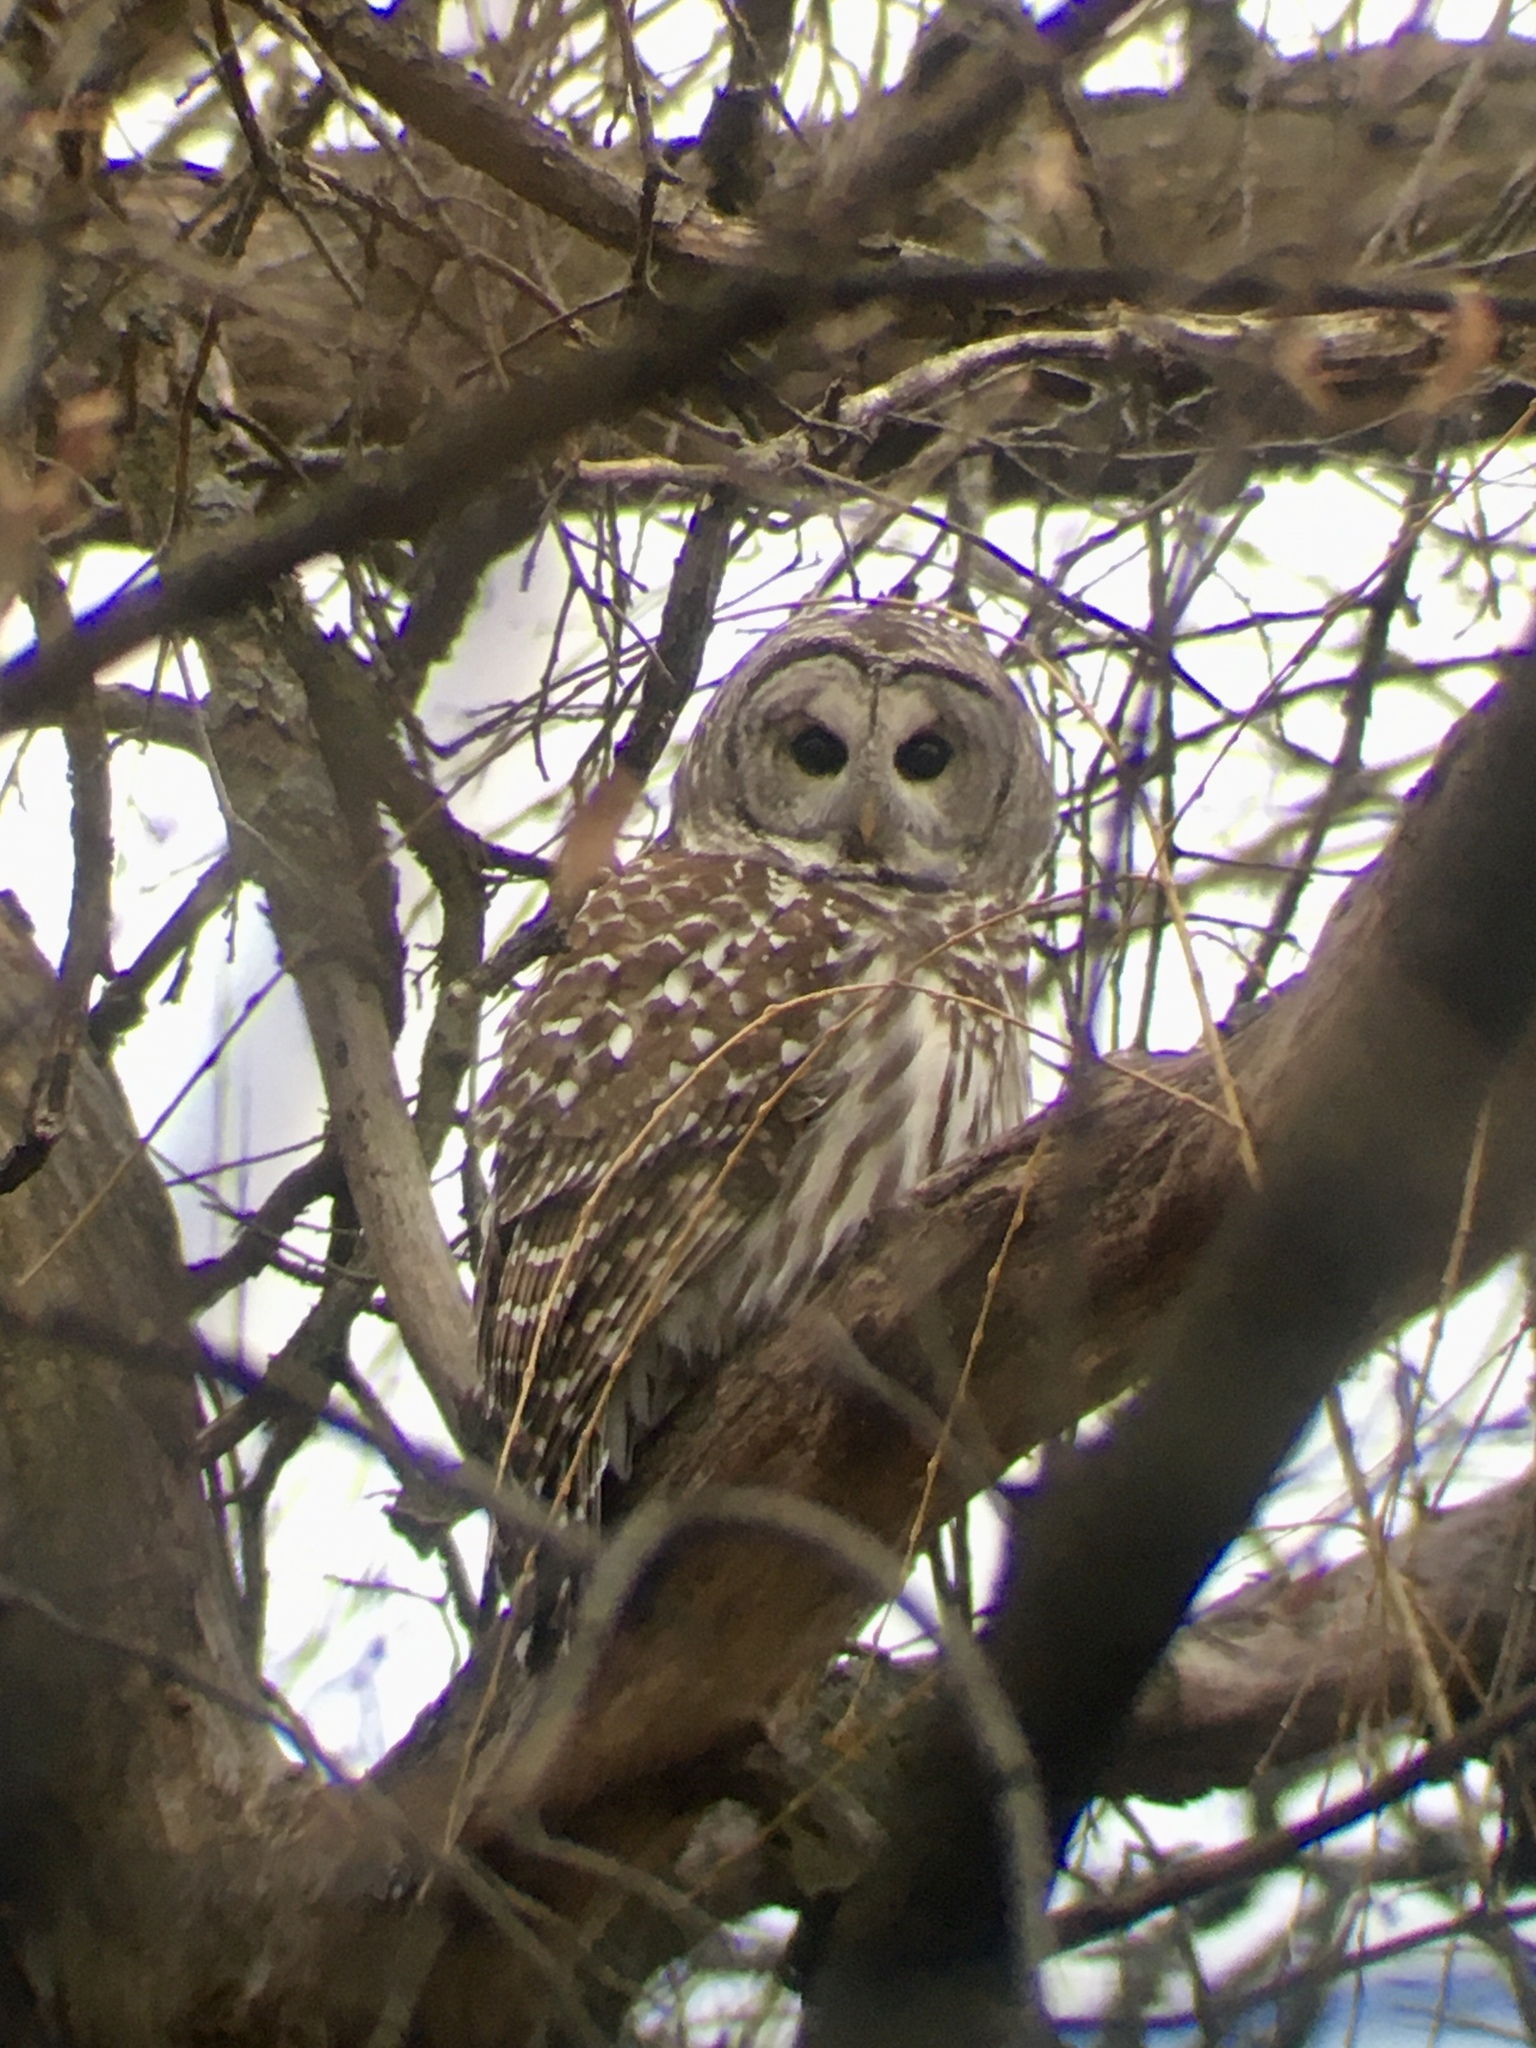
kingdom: Animalia
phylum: Chordata
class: Aves
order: Strigiformes
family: Strigidae
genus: Strix
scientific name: Strix varia
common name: Barred owl
